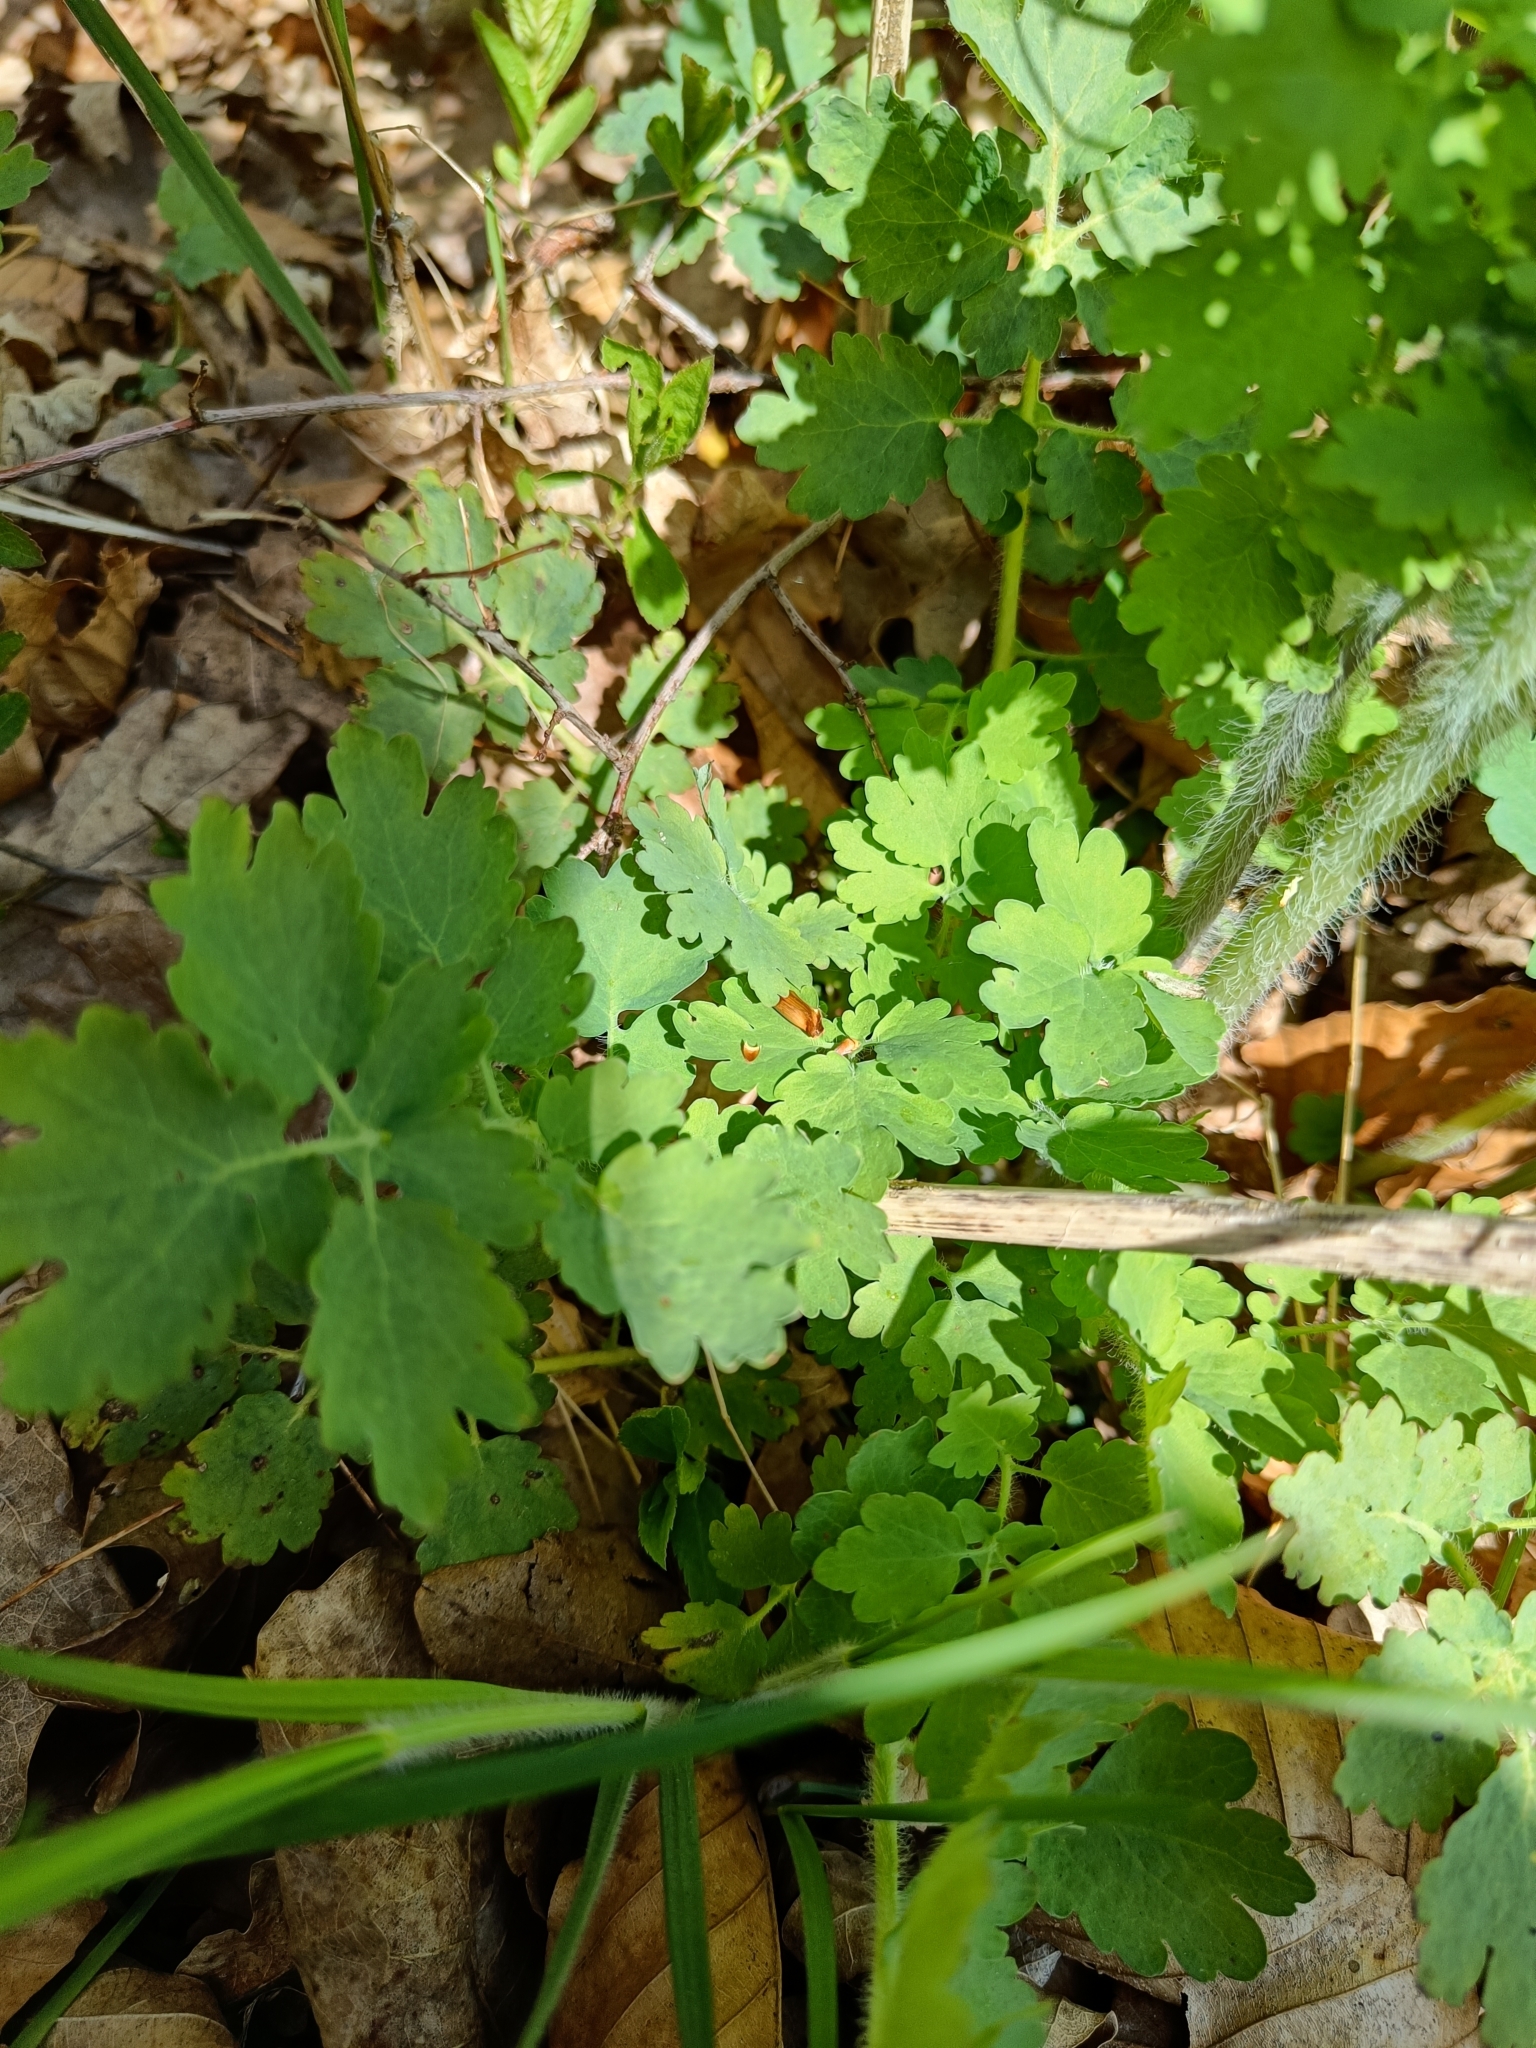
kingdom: Plantae
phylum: Tracheophyta
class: Magnoliopsida
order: Ranunculales
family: Papaveraceae
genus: Chelidonium
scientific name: Chelidonium majus
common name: Greater celandine
